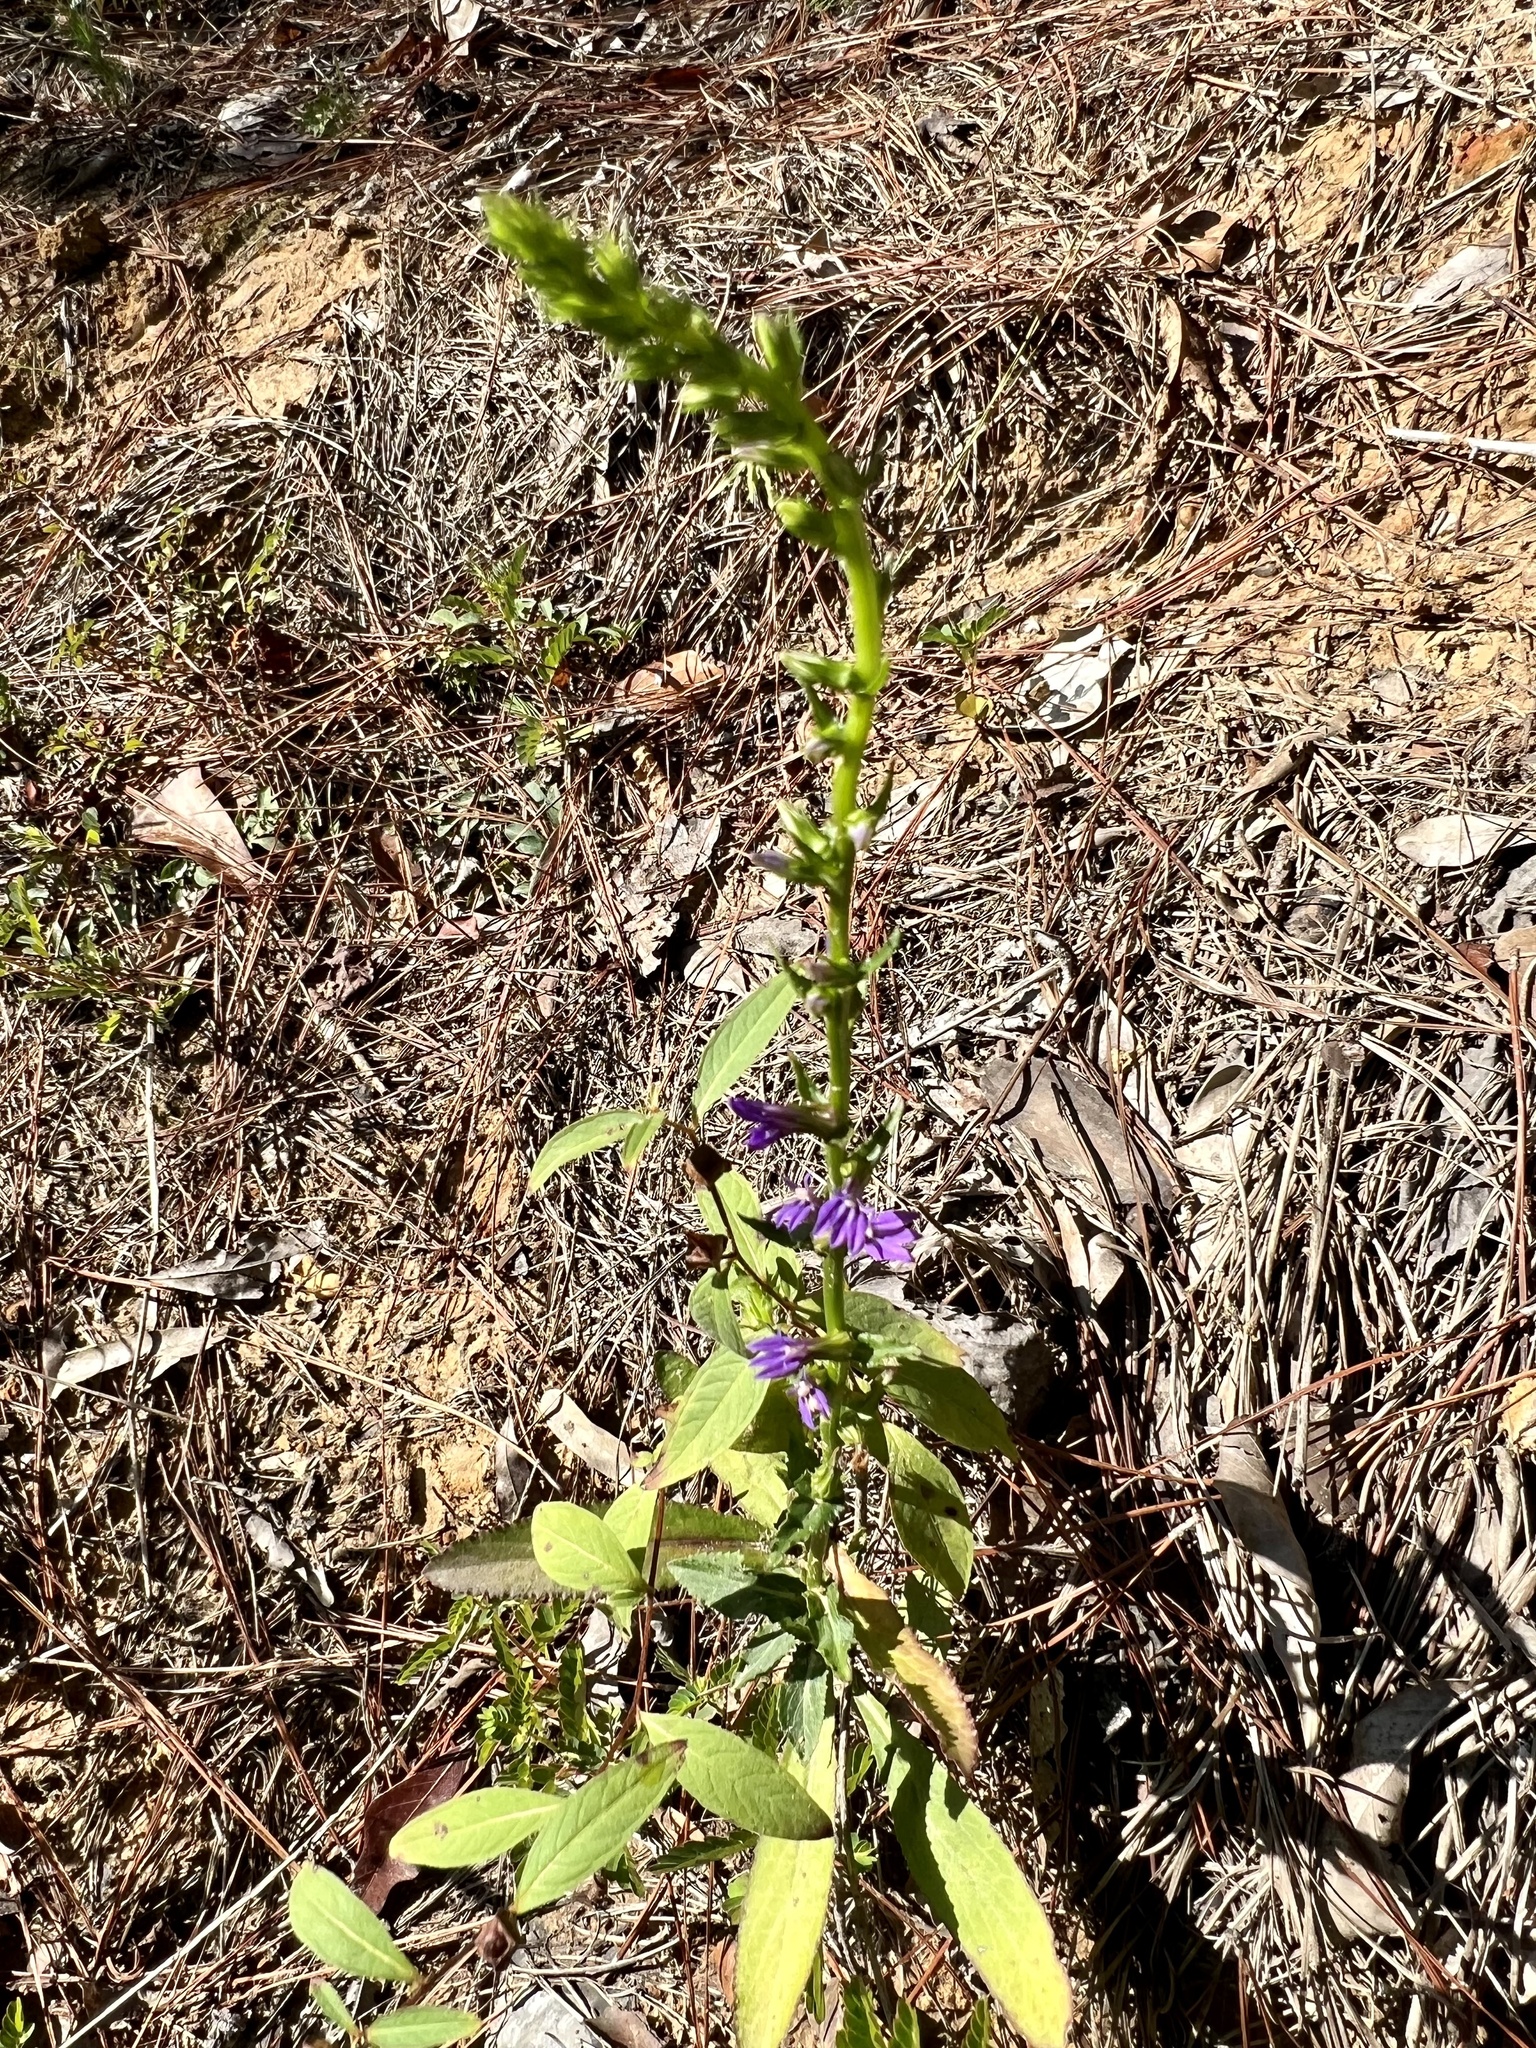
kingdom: Plantae
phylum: Tracheophyta
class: Magnoliopsida
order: Asterales
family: Campanulaceae
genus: Lobelia
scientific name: Lobelia puberula
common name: Purple dewdrop
